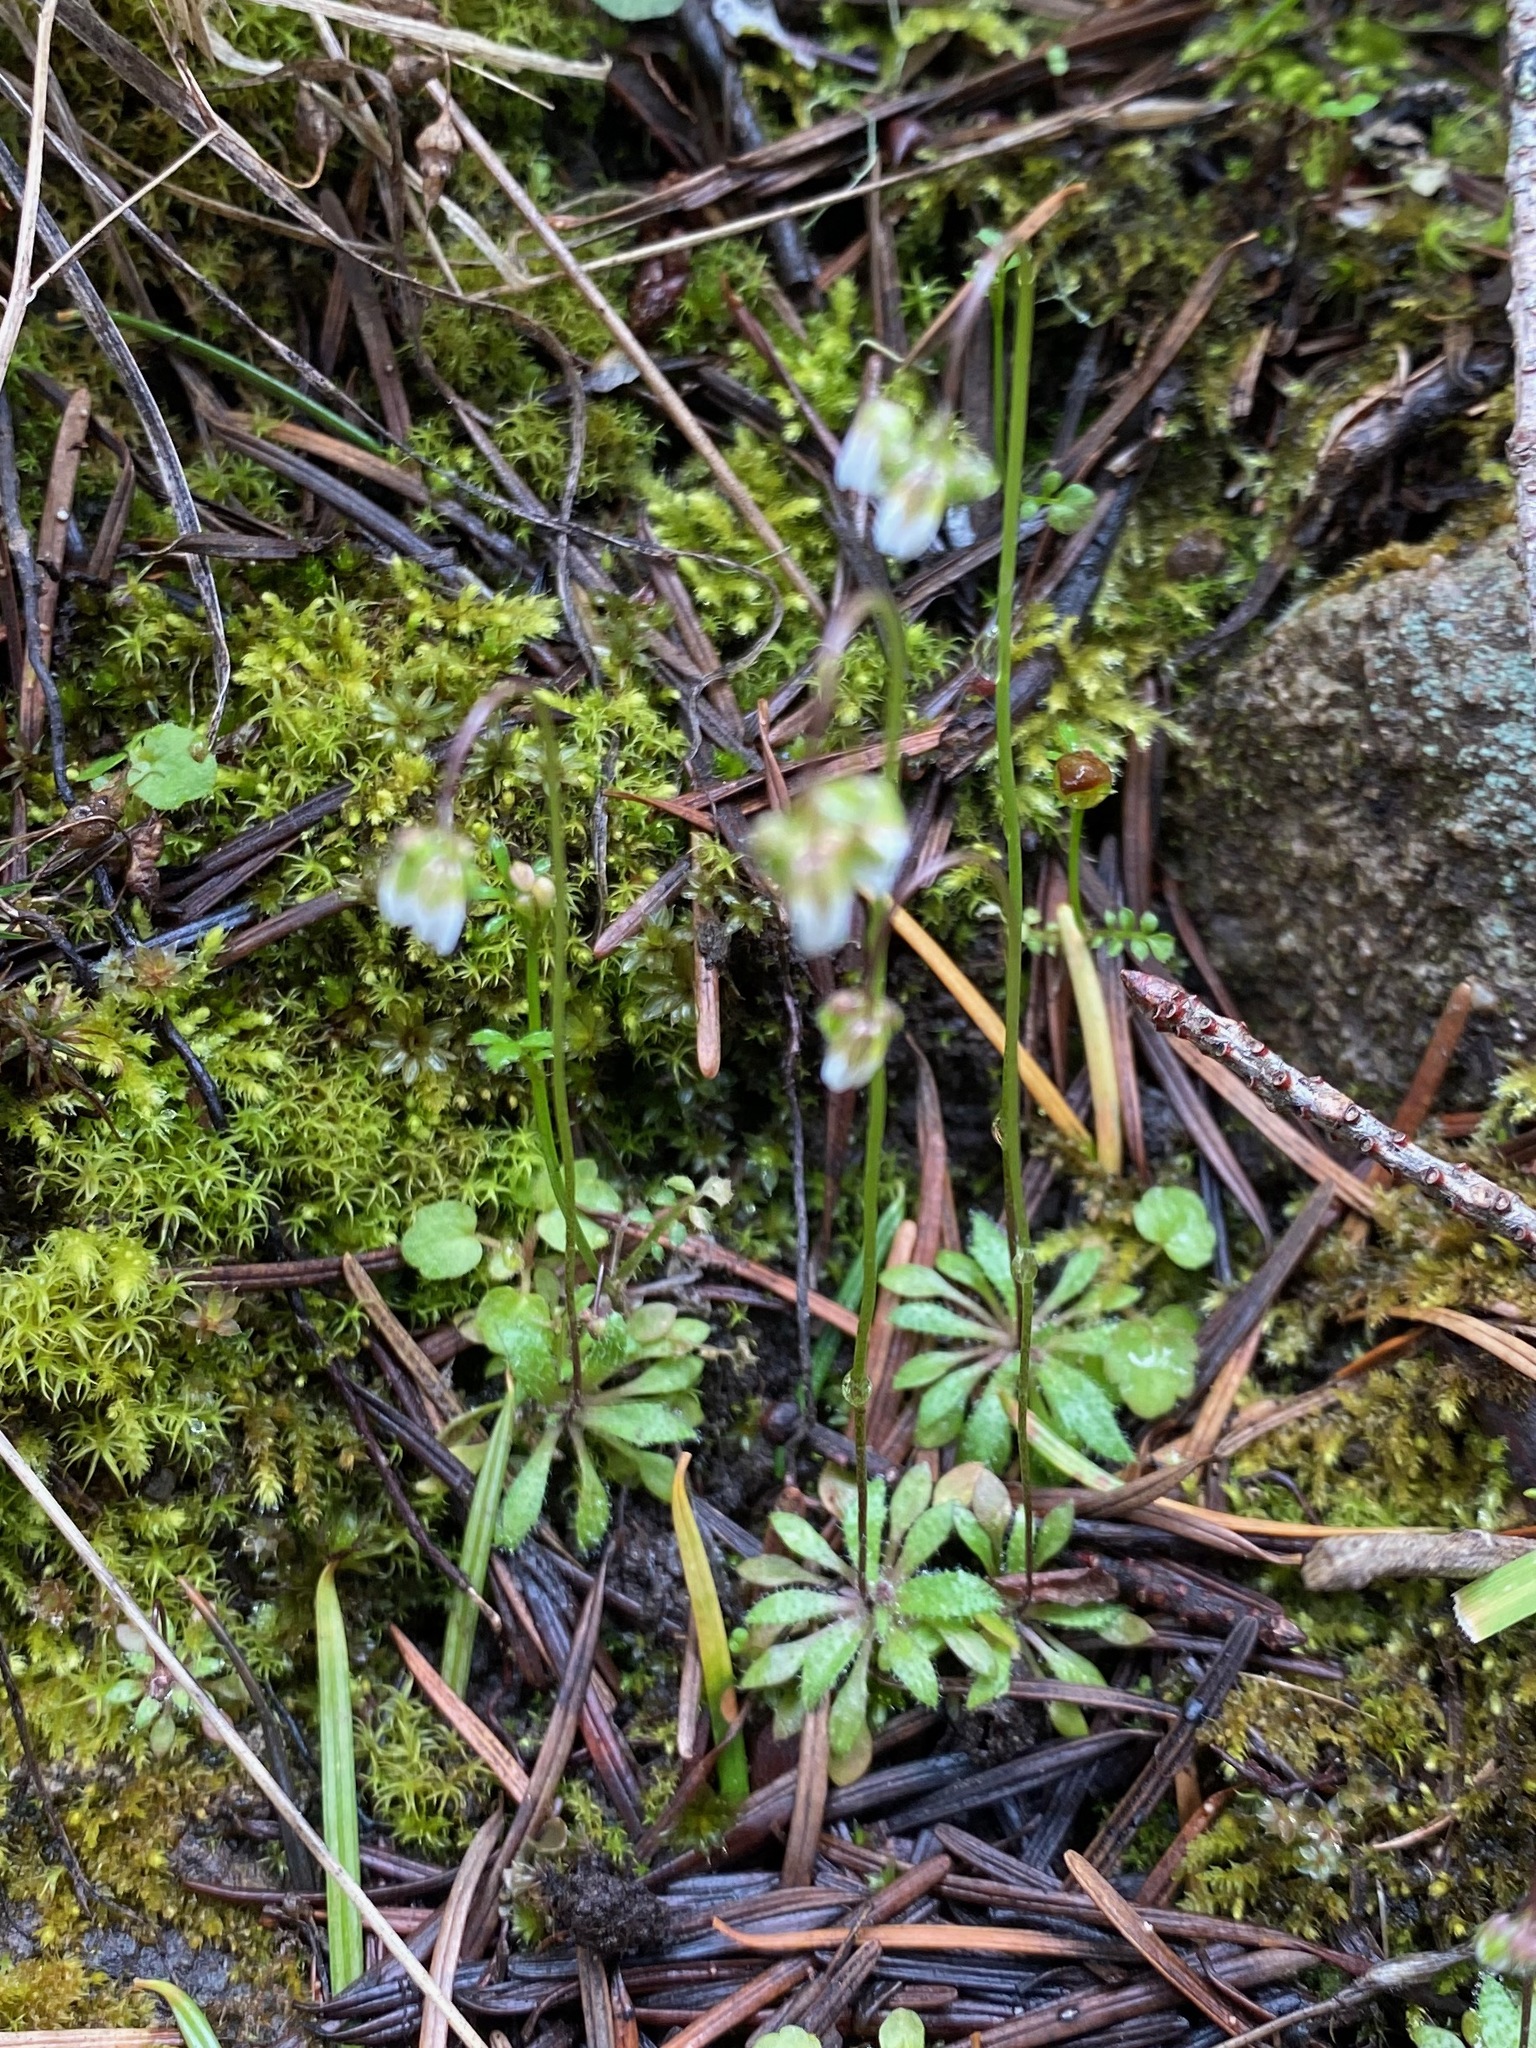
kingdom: Plantae
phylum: Tracheophyta
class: Magnoliopsida
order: Brassicales
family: Brassicaceae
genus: Draba
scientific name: Draba verna
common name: Spring draba
